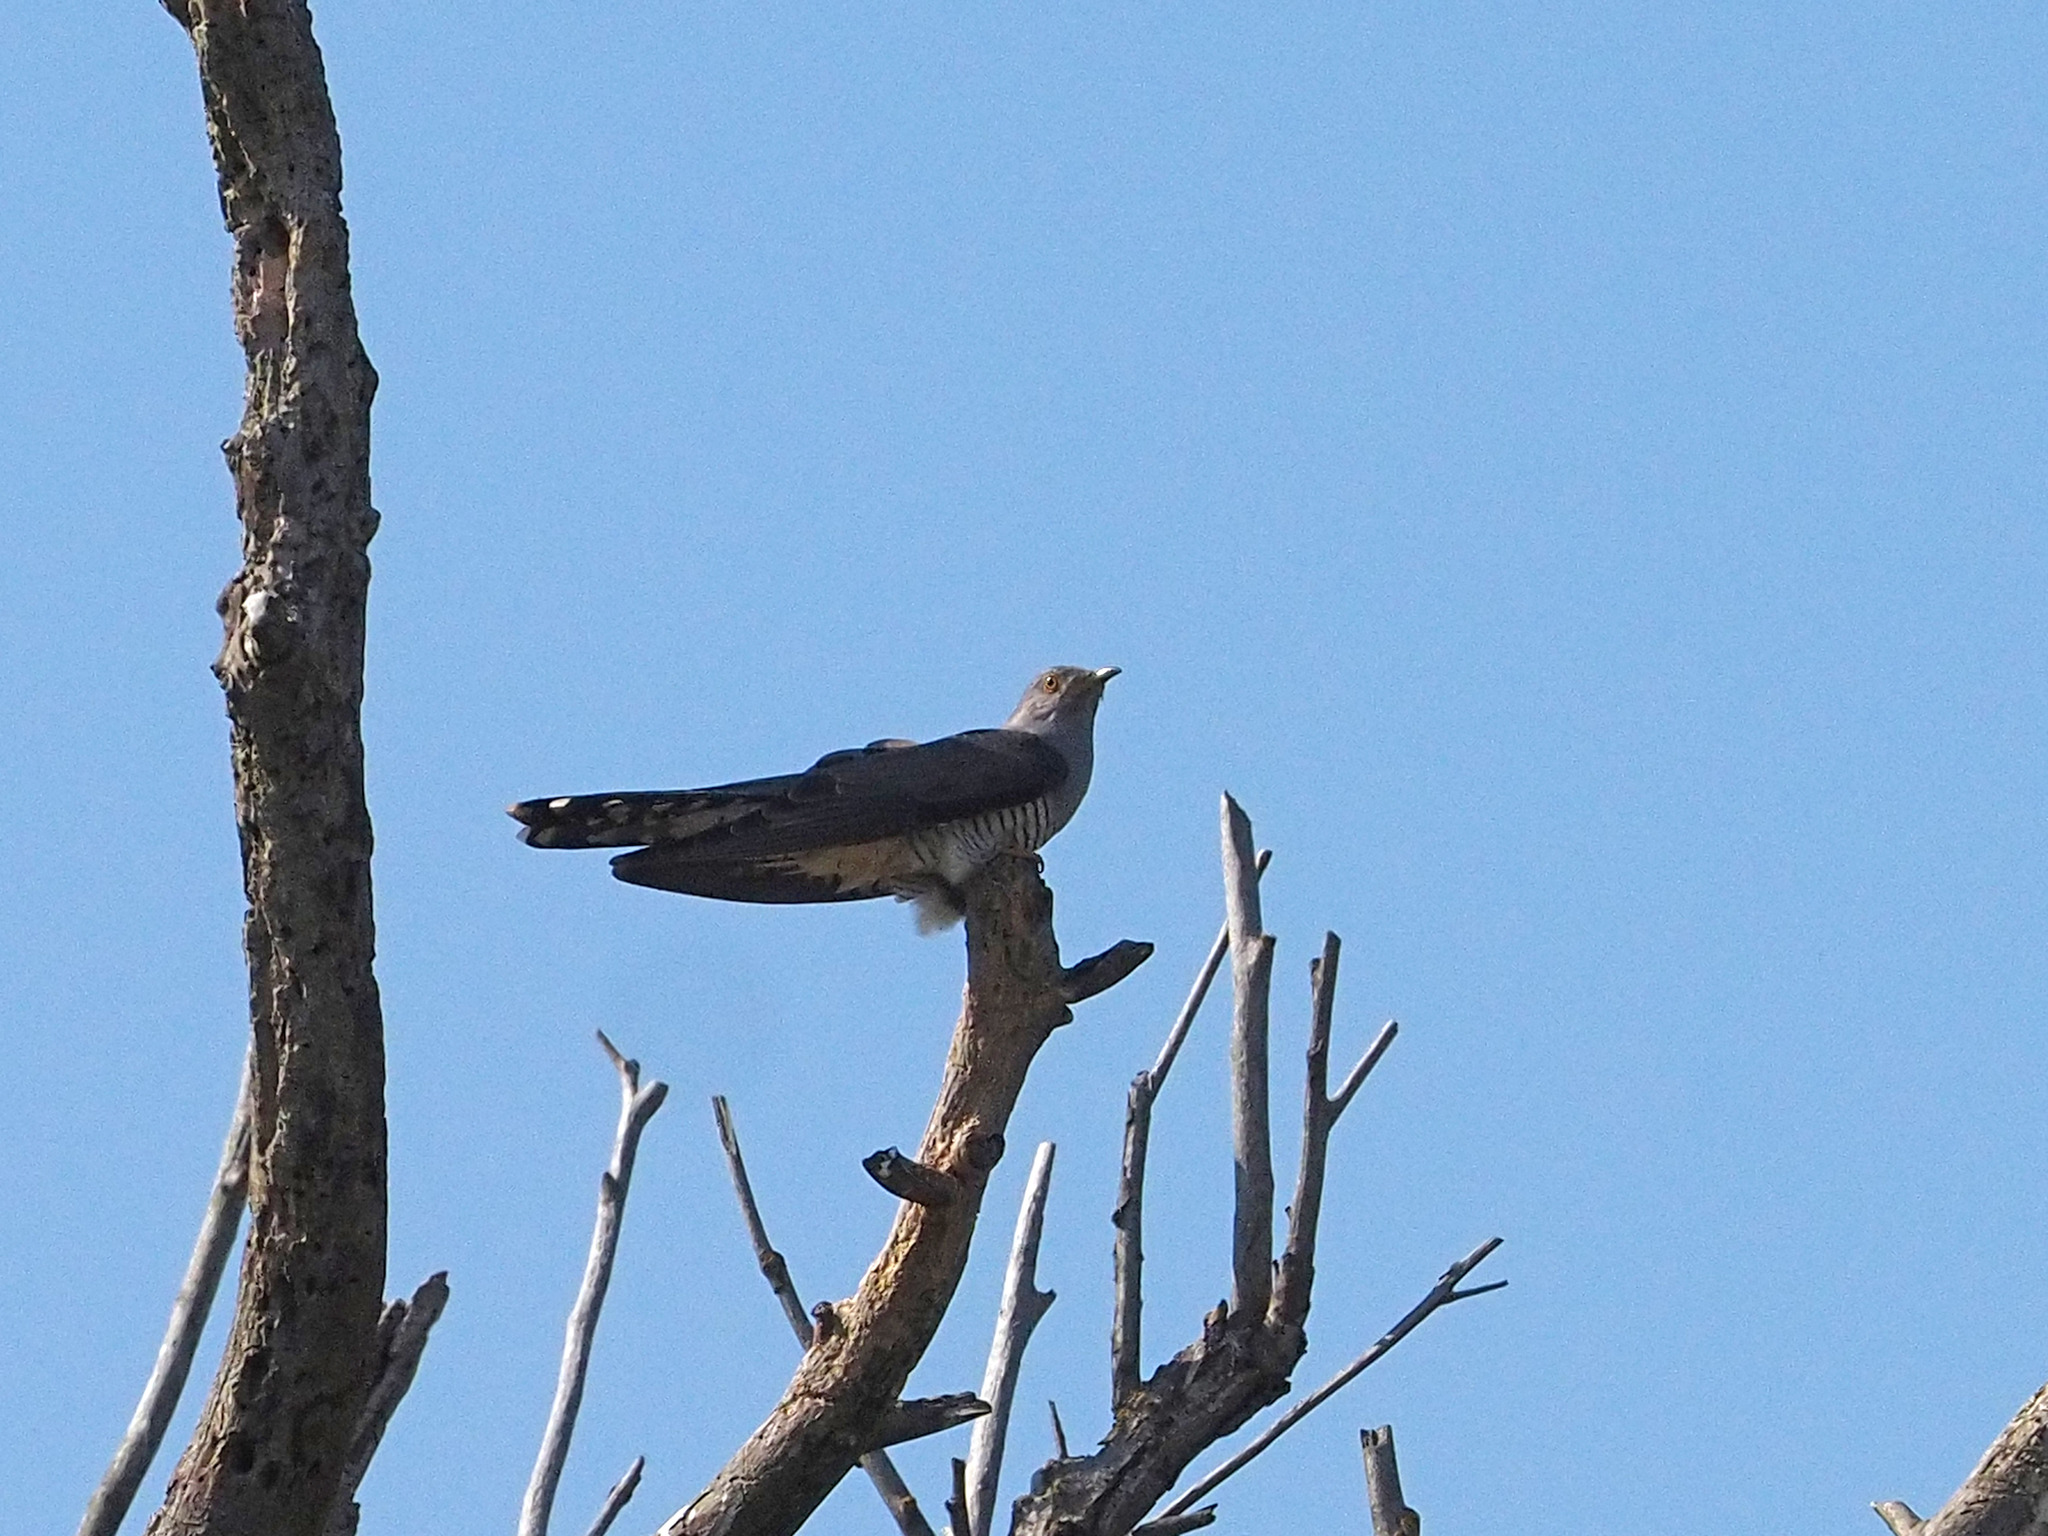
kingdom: Animalia
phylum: Chordata
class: Aves
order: Cuculiformes
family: Cuculidae
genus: Cuculus
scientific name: Cuculus canorus
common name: Common cuckoo
